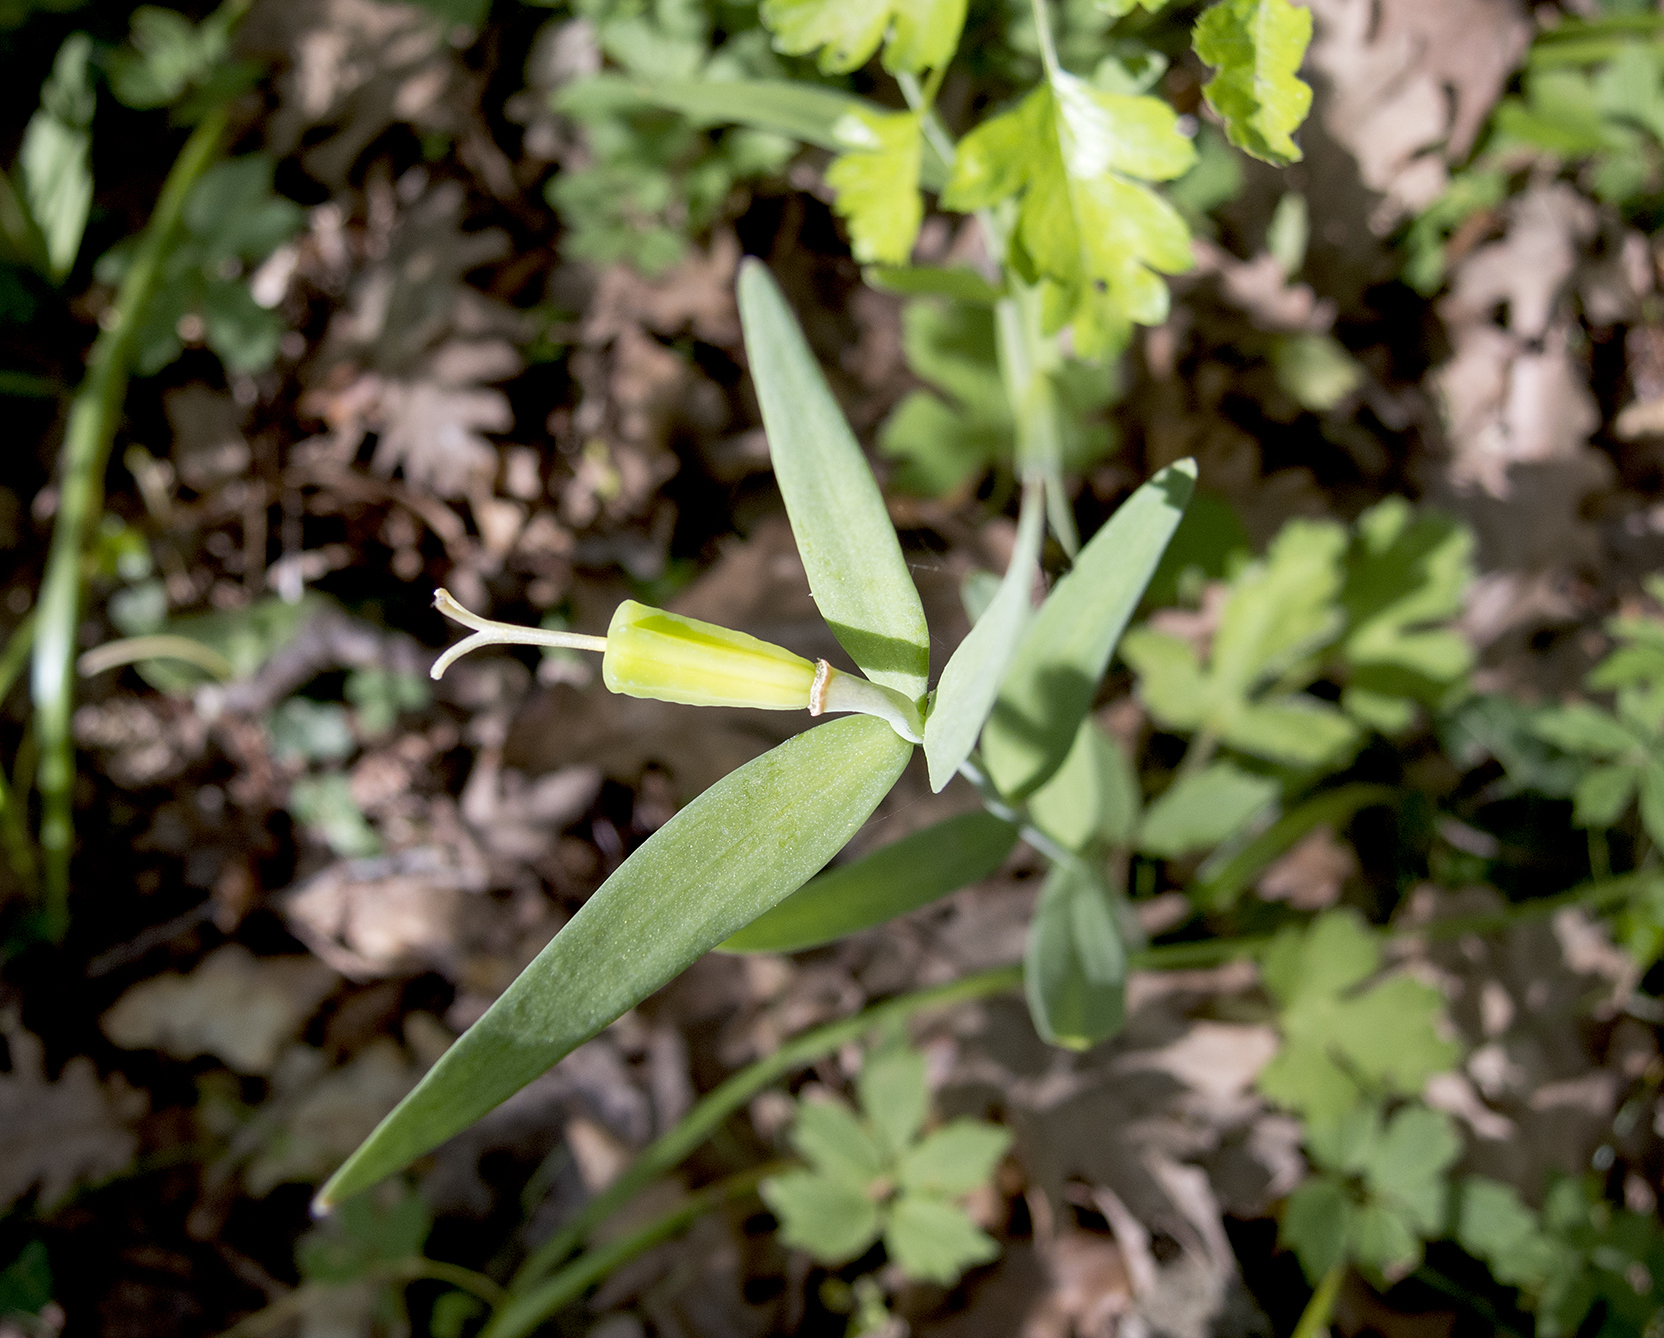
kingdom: Plantae
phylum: Tracheophyta
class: Liliopsida
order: Liliales
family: Liliaceae
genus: Fritillaria
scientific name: Fritillaria pontica
